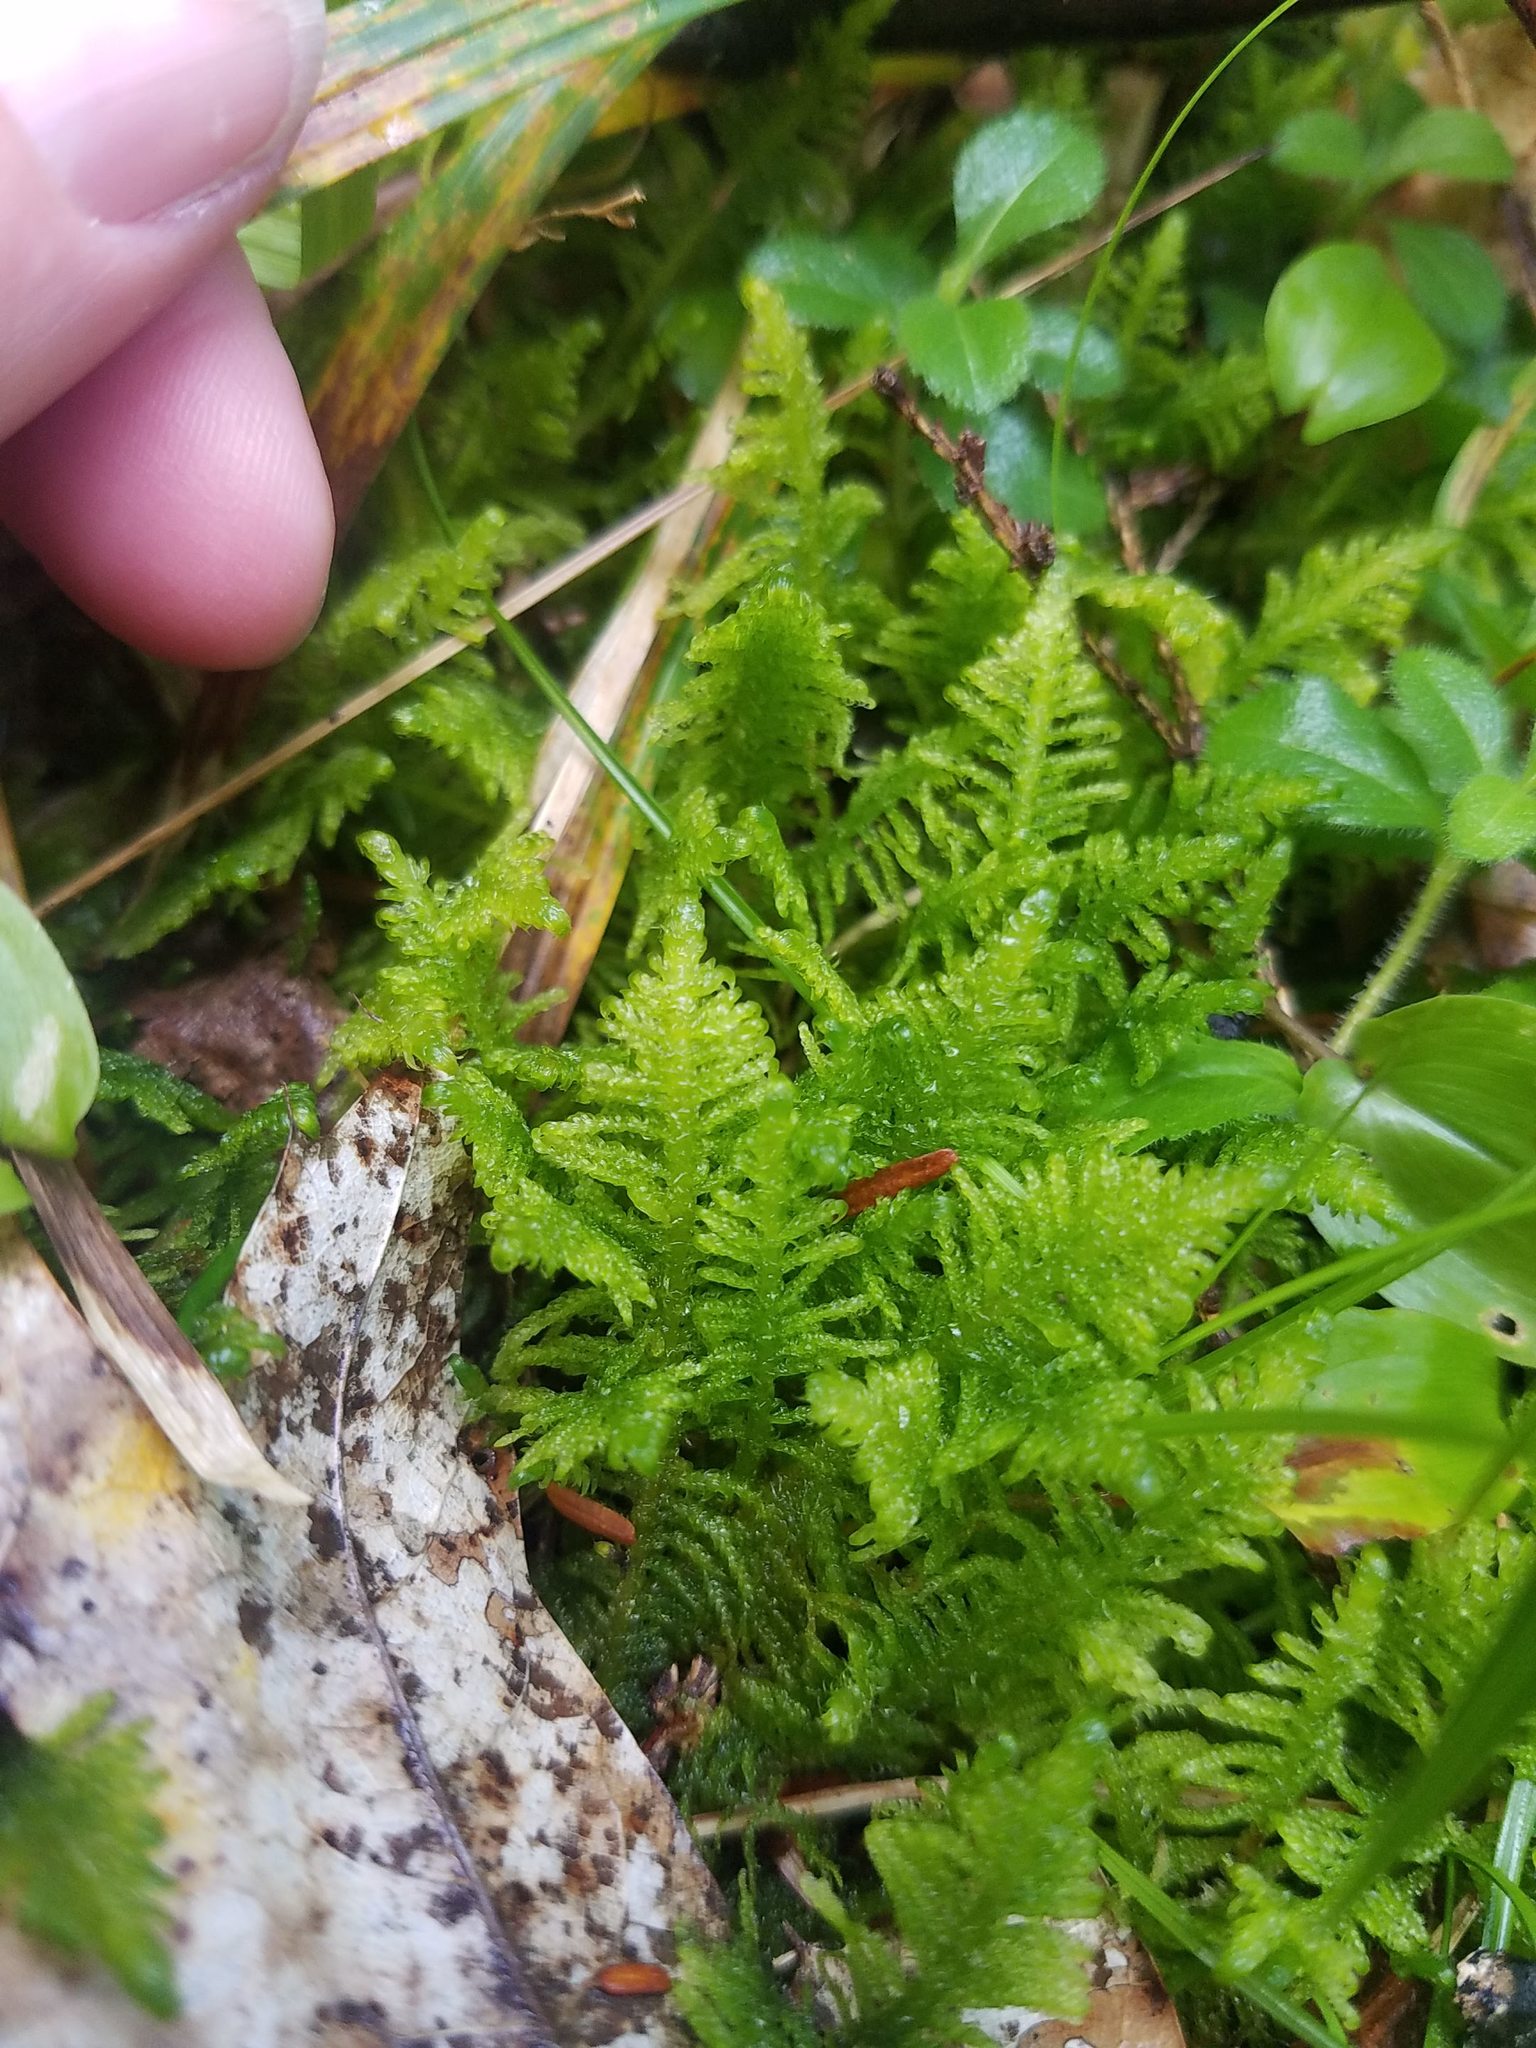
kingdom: Plantae
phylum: Bryophyta
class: Bryopsida
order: Hypnales
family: Pylaisiaceae
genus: Ptilium
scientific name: Ptilium crista-castrensis
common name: Knight's plume moss
